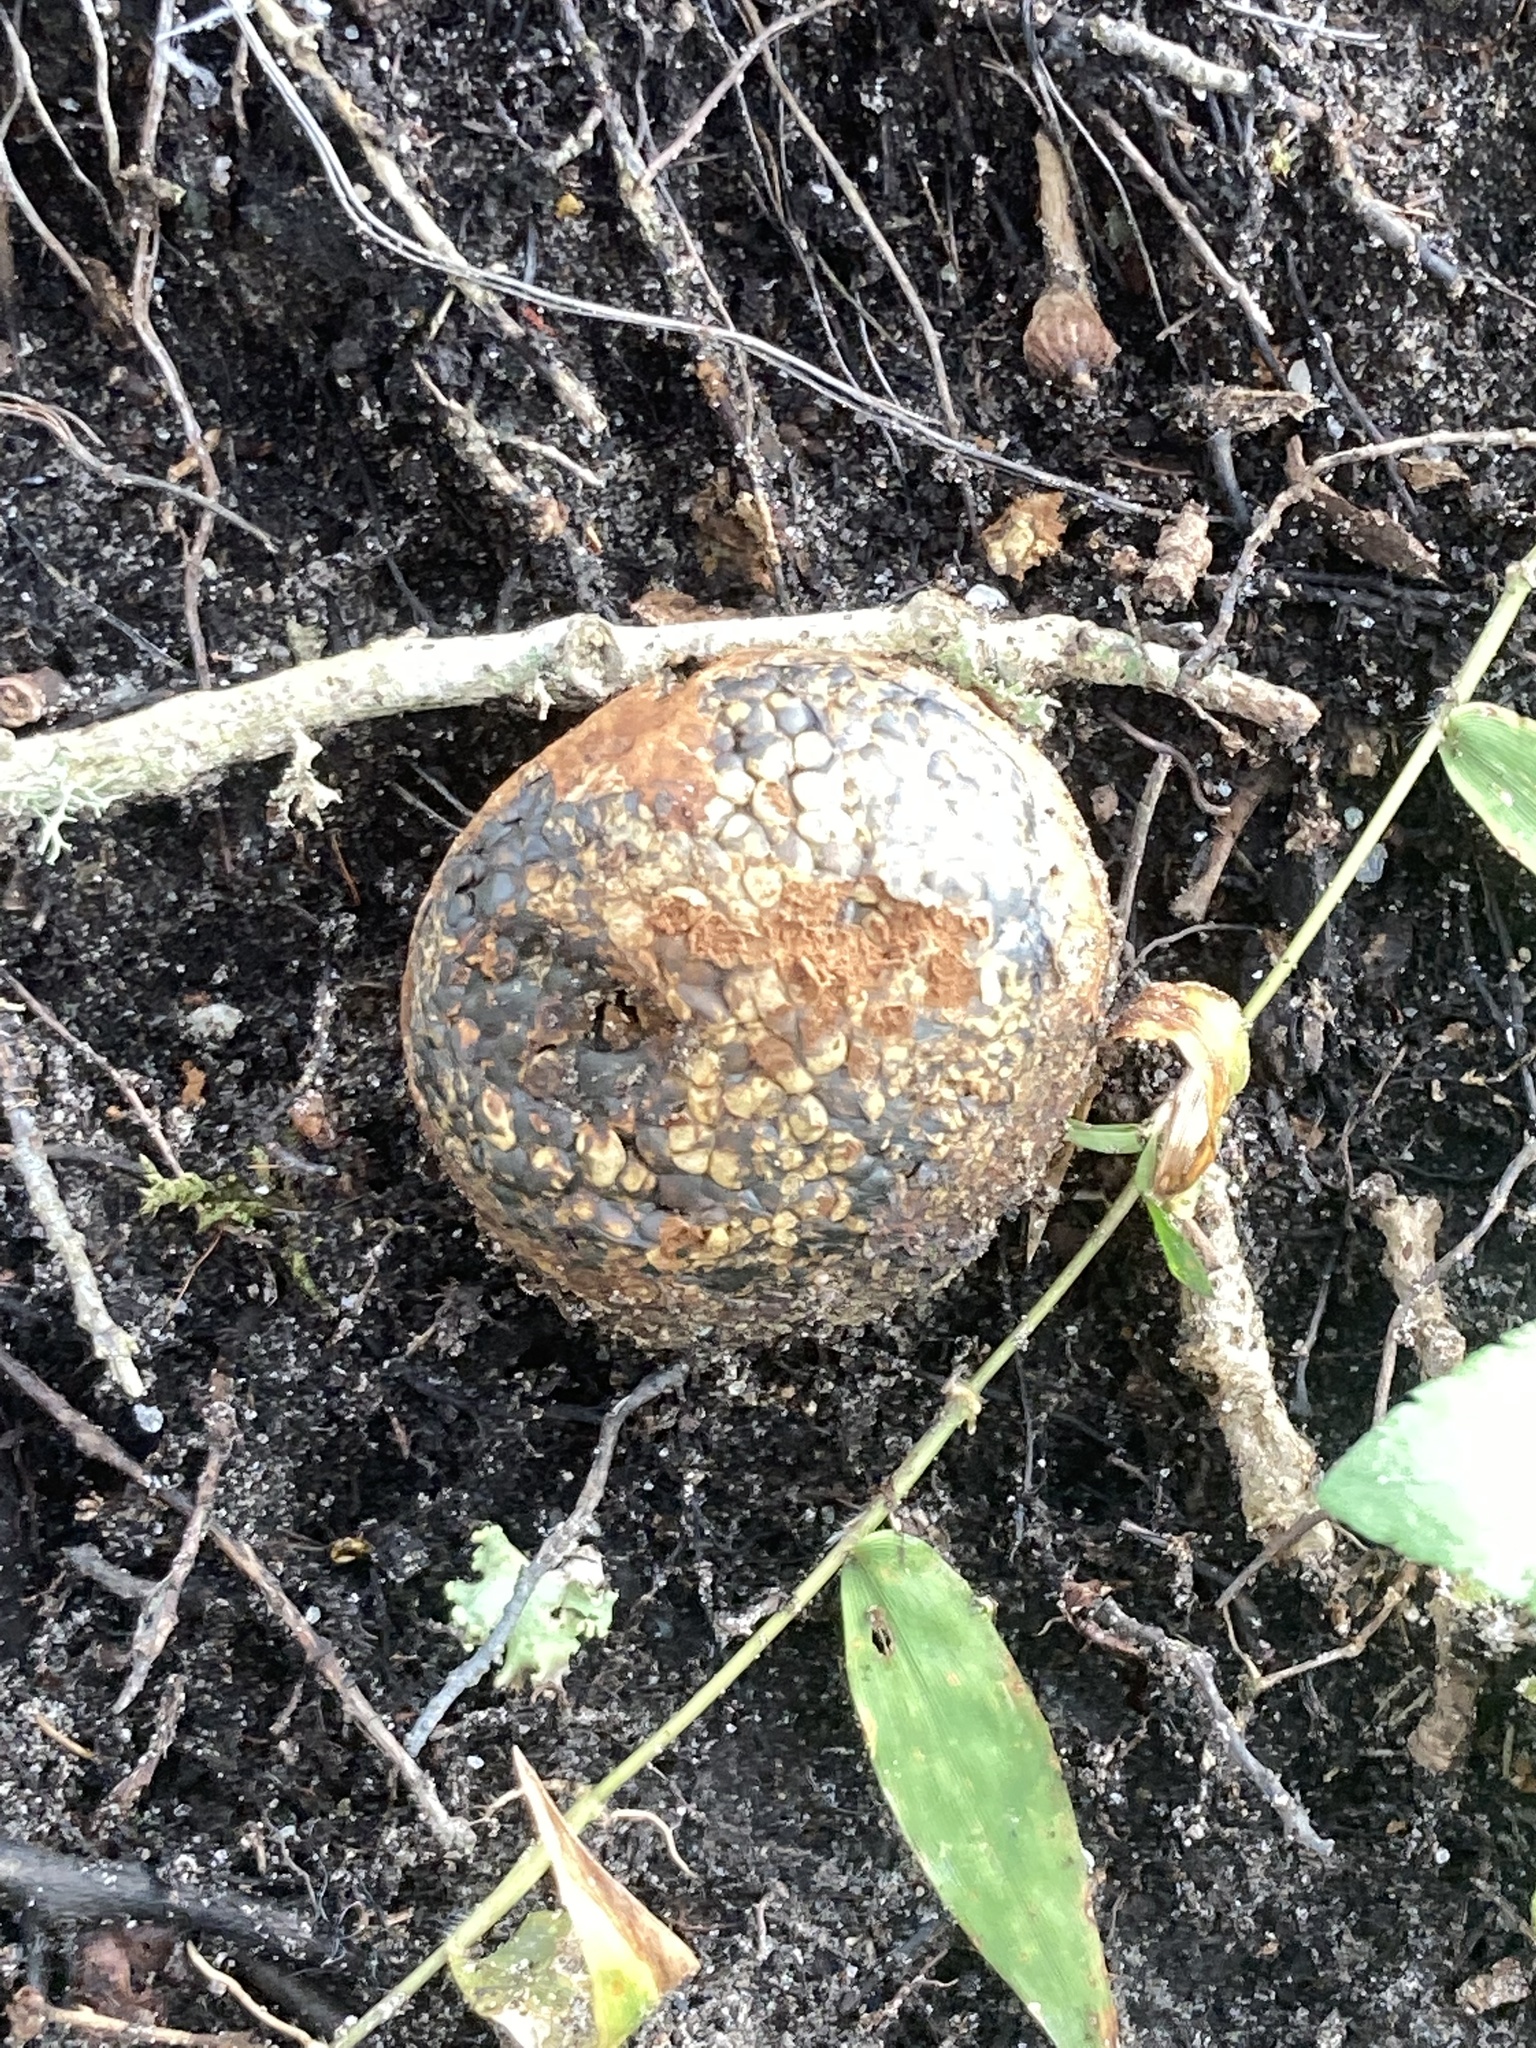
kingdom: Fungi
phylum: Basidiomycota
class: Agaricomycetes
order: Boletales
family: Sclerodermataceae
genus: Pisolithus
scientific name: Pisolithus arenarius
